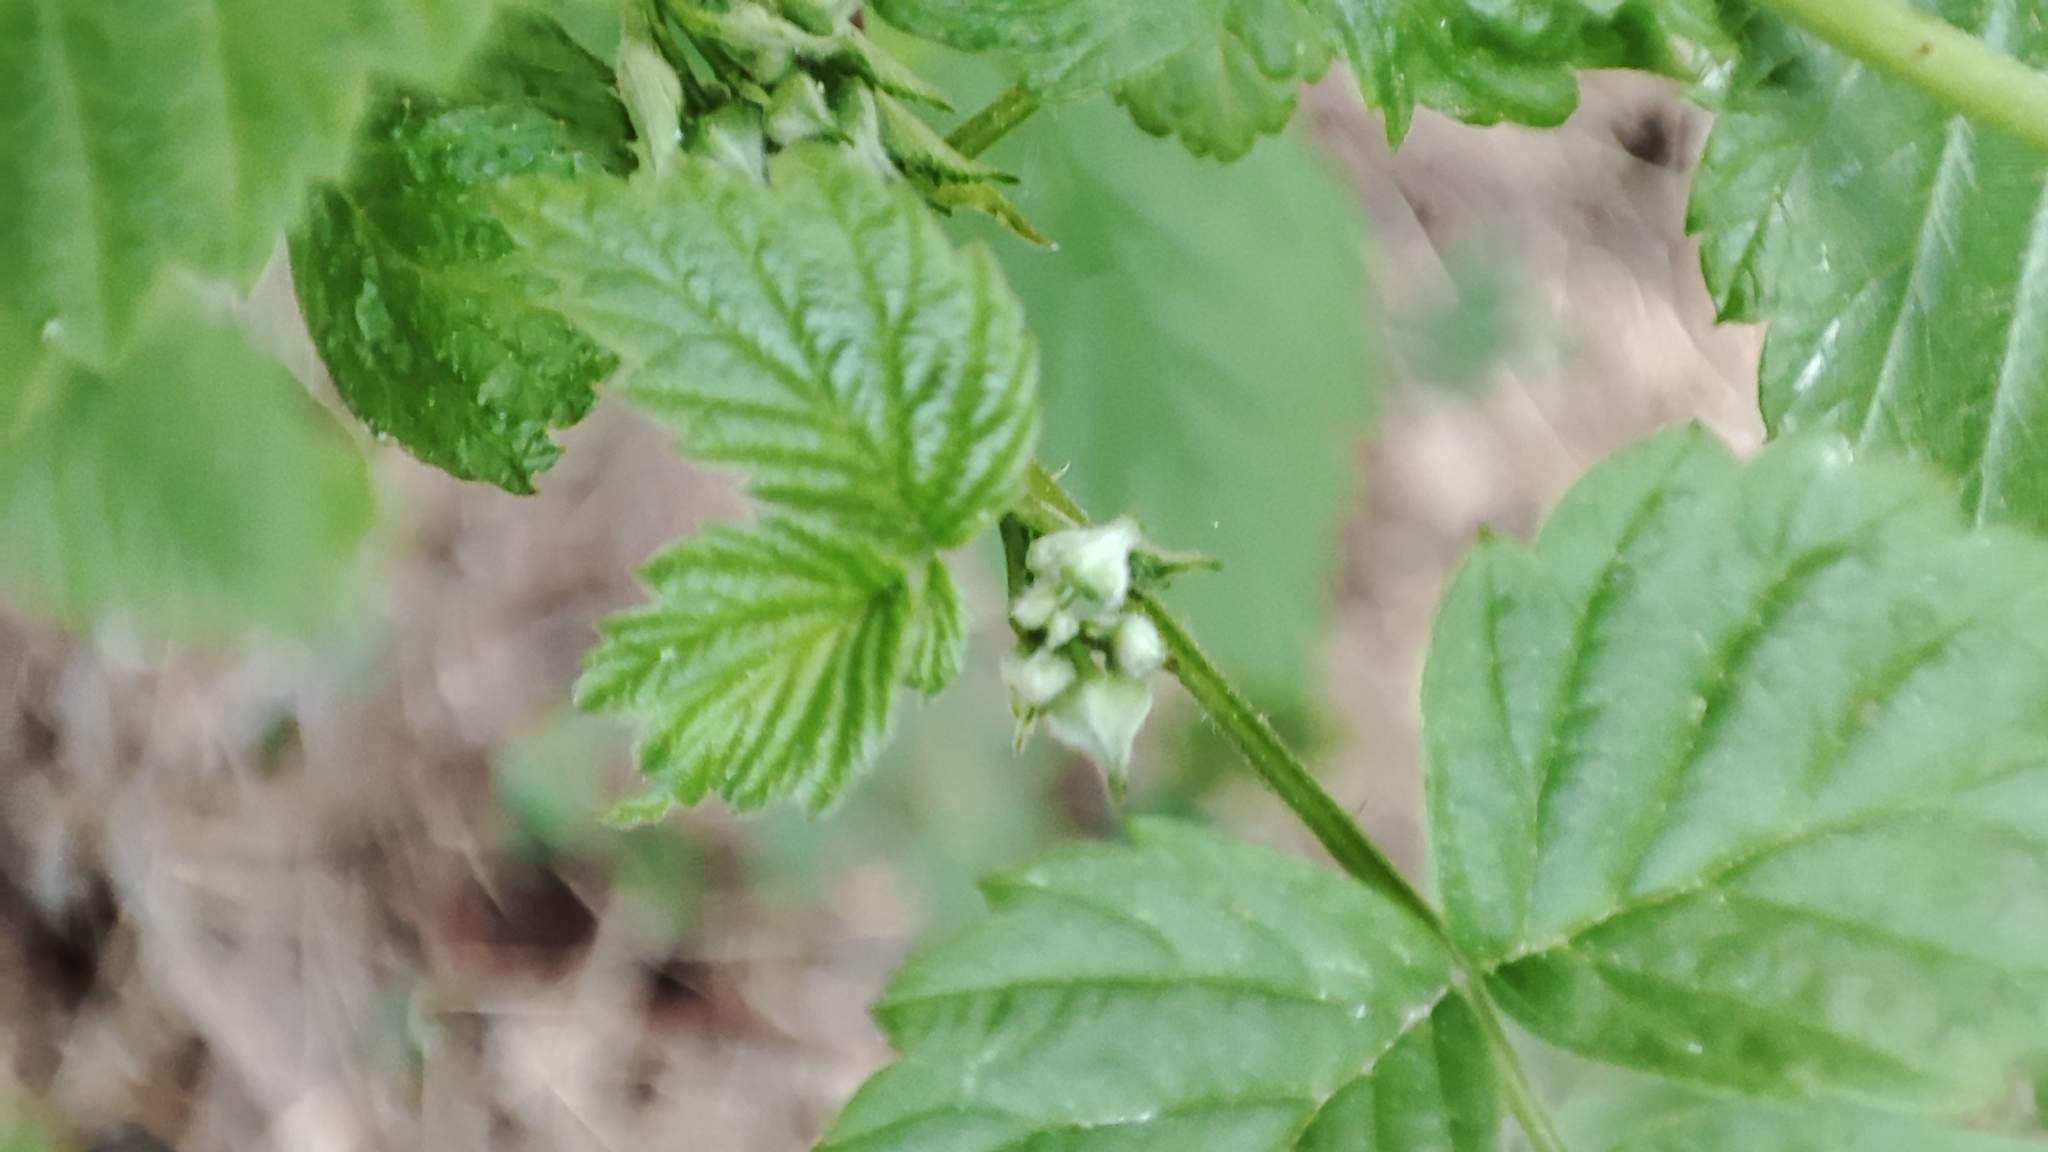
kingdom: Plantae
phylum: Tracheophyta
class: Magnoliopsida
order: Rosales
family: Rosaceae
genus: Rubus
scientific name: Rubus idaeus
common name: Raspberry
